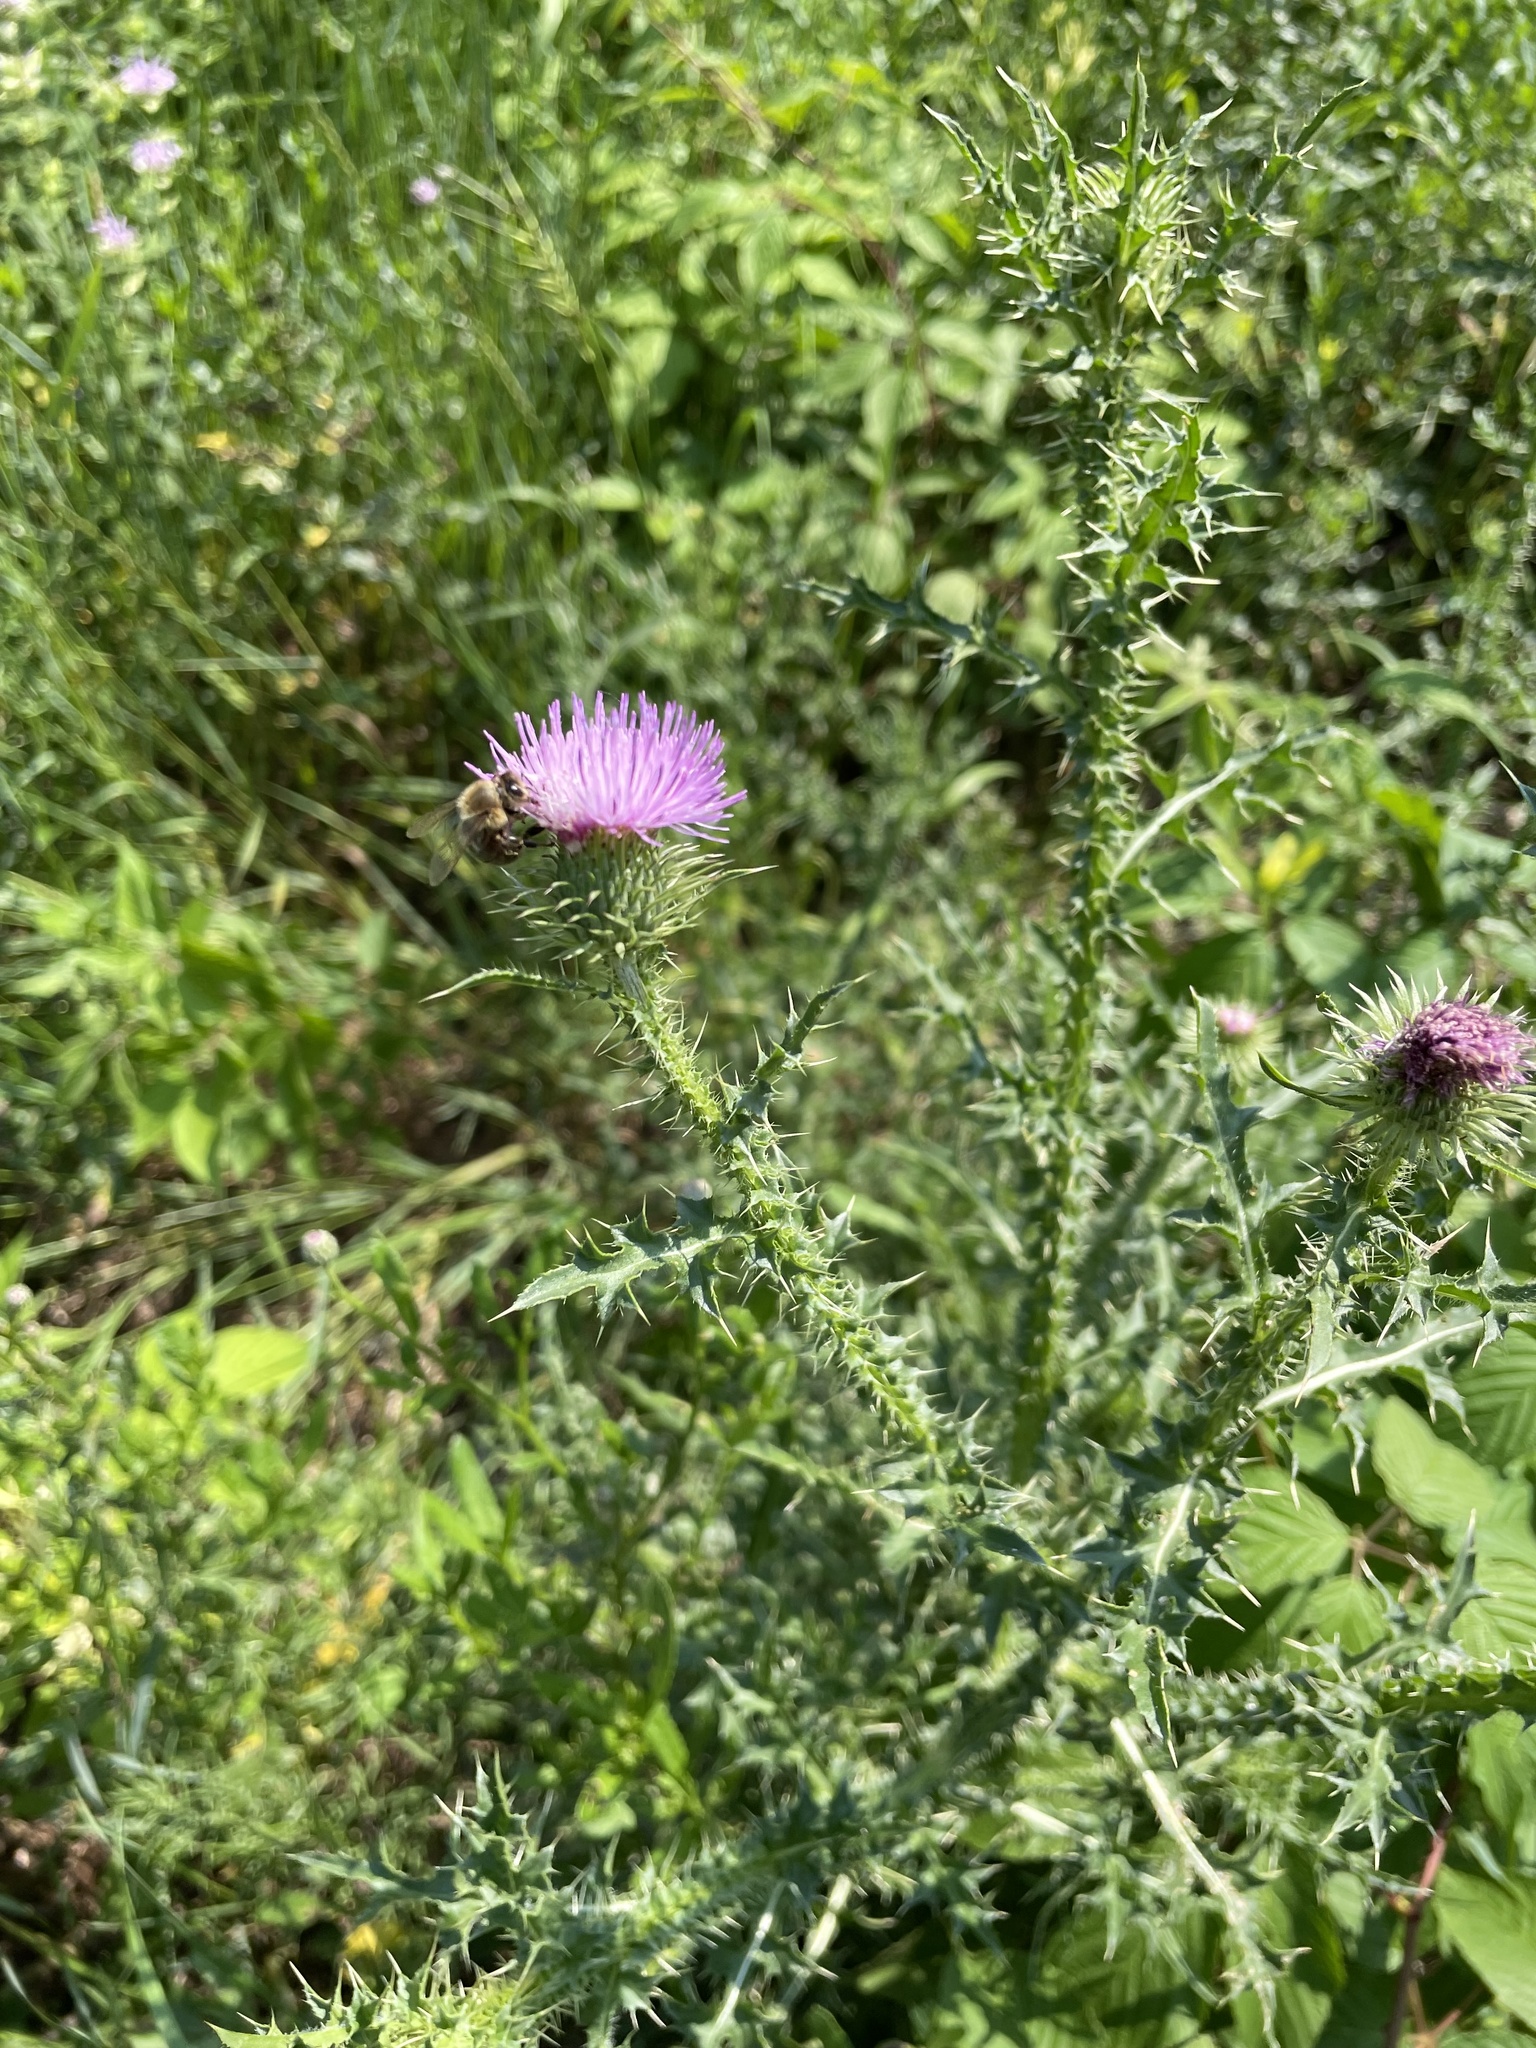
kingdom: Plantae
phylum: Tracheophyta
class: Magnoliopsida
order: Asterales
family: Asteraceae
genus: Carduus
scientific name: Carduus acanthoides
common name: Plumeless thistle
